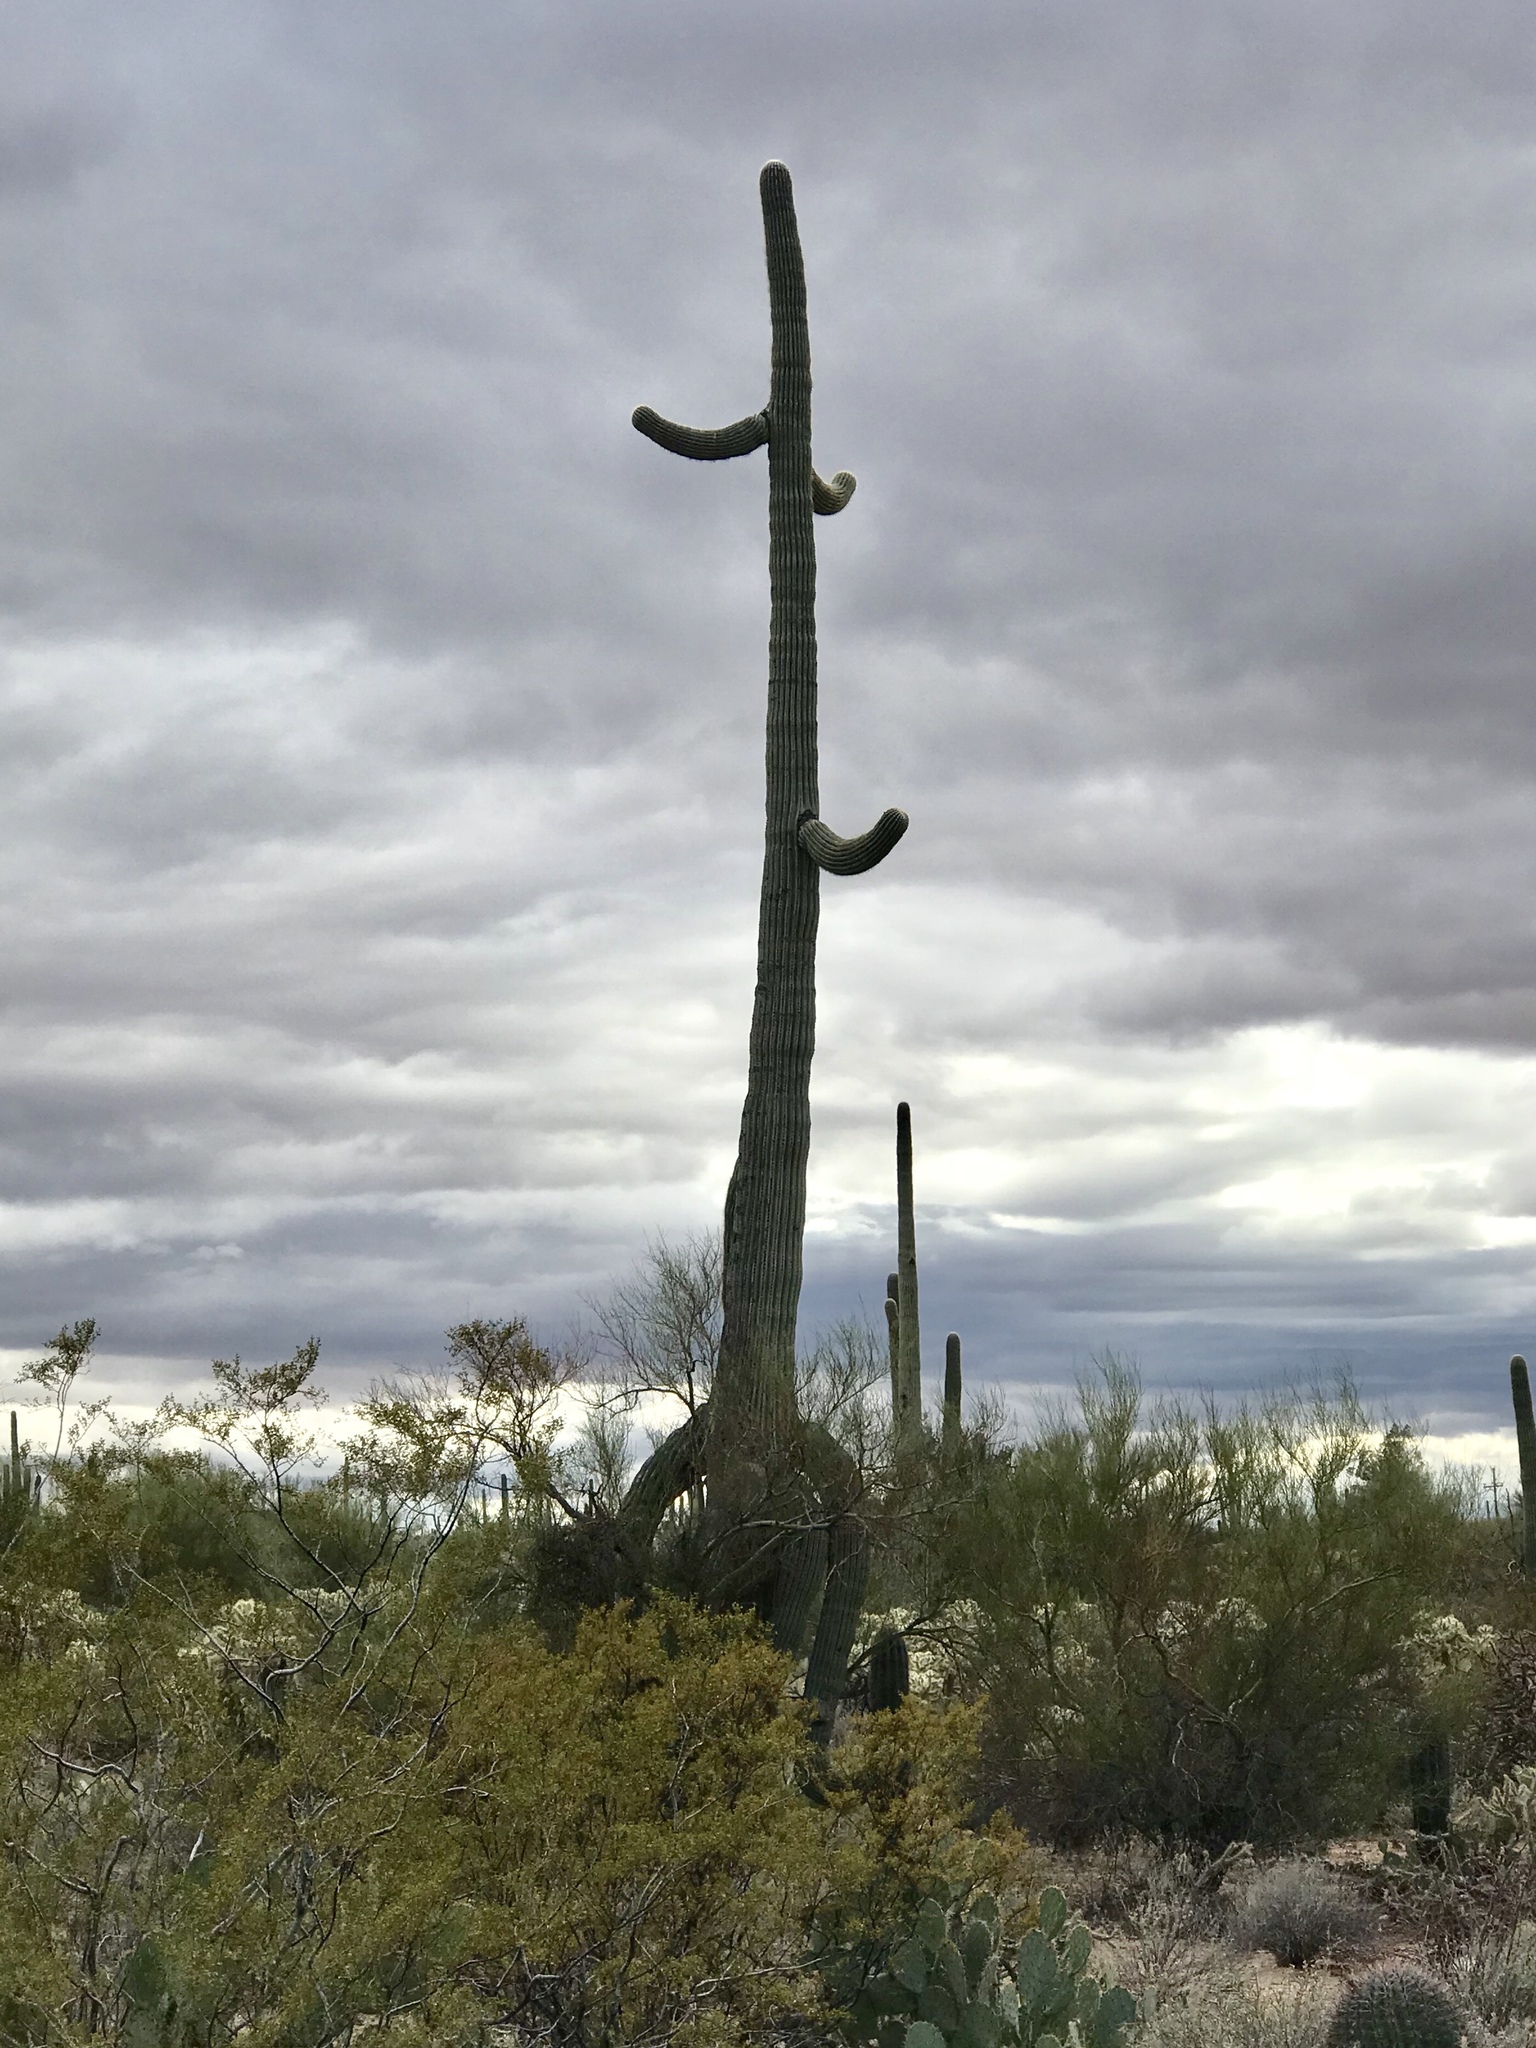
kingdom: Plantae
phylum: Tracheophyta
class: Magnoliopsida
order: Caryophyllales
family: Cactaceae
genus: Carnegiea
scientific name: Carnegiea gigantea
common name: Saguaro
